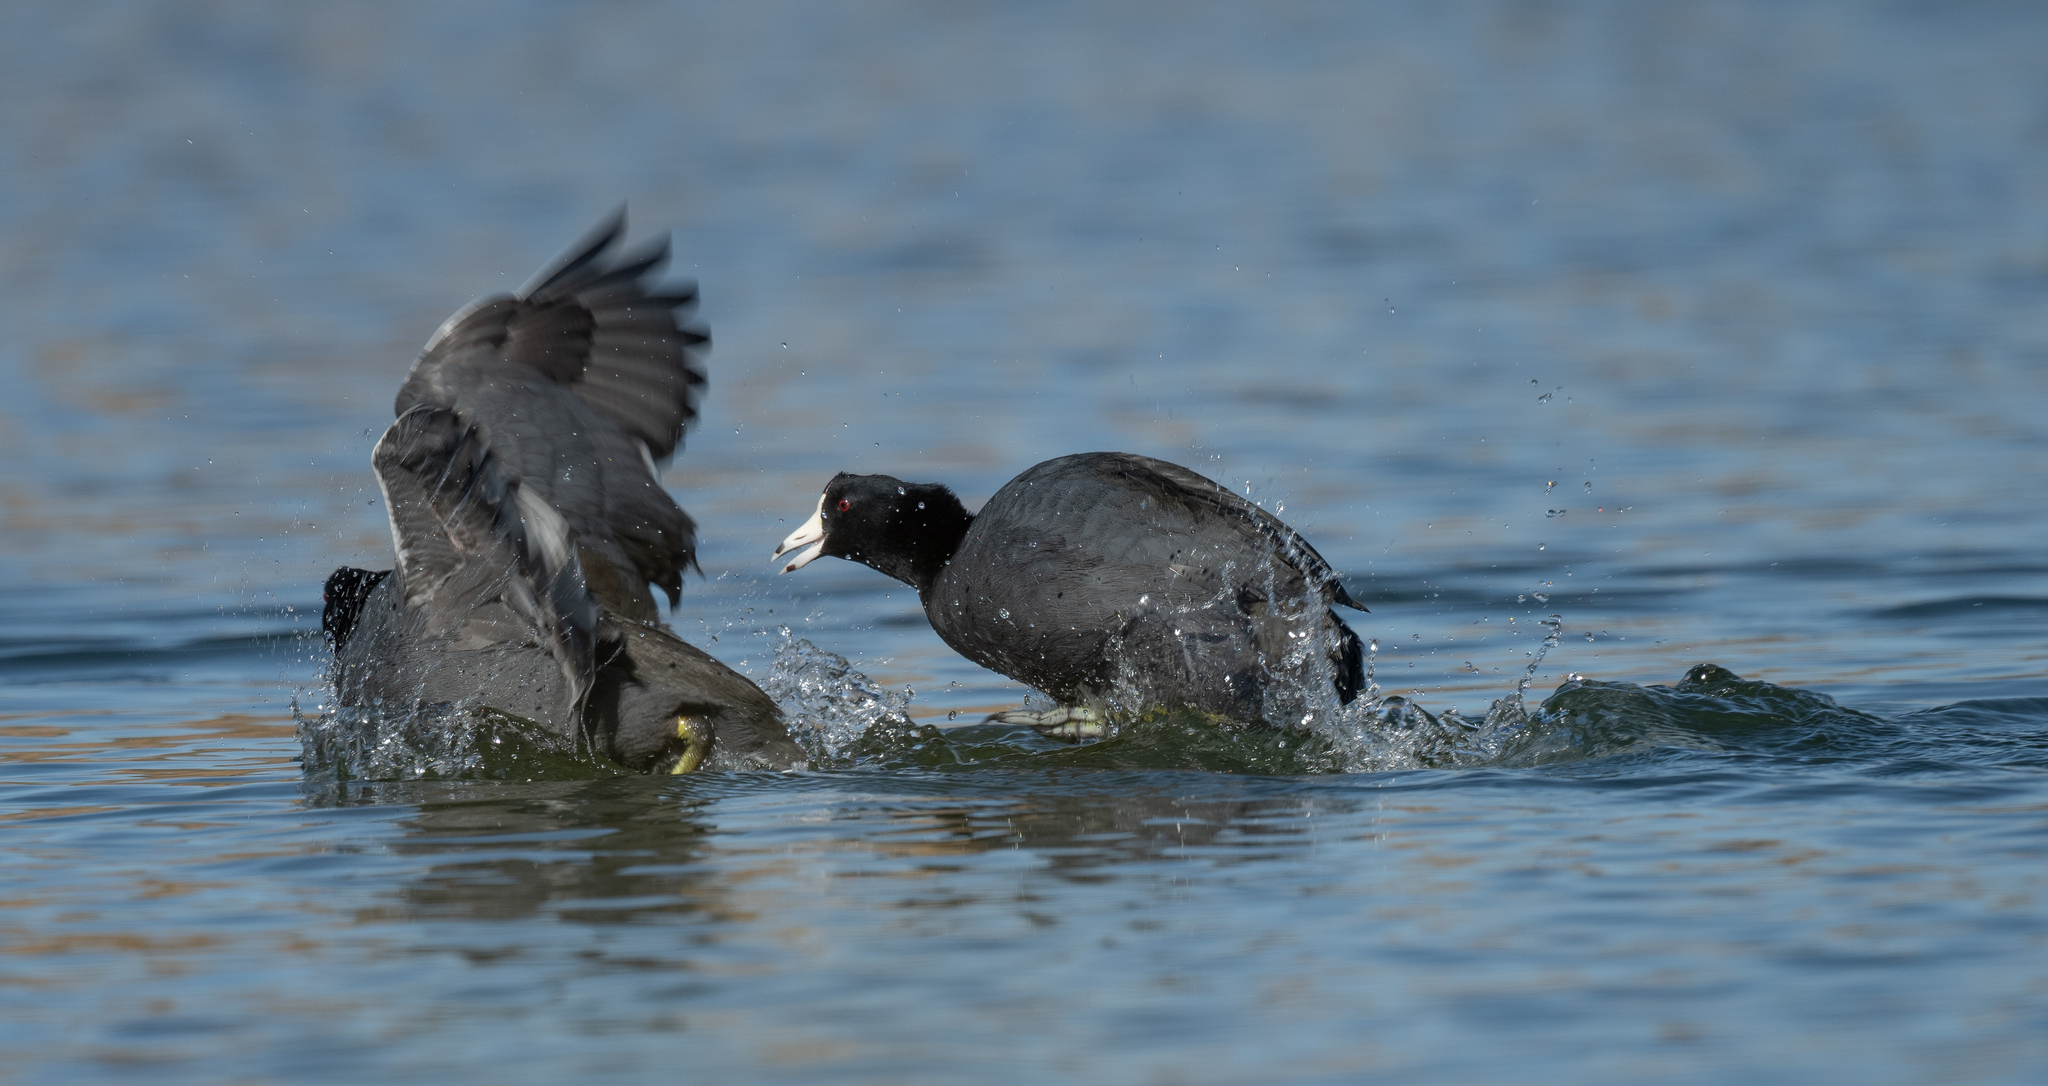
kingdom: Animalia
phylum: Chordata
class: Aves
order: Gruiformes
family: Rallidae
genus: Fulica
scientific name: Fulica americana
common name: American coot
